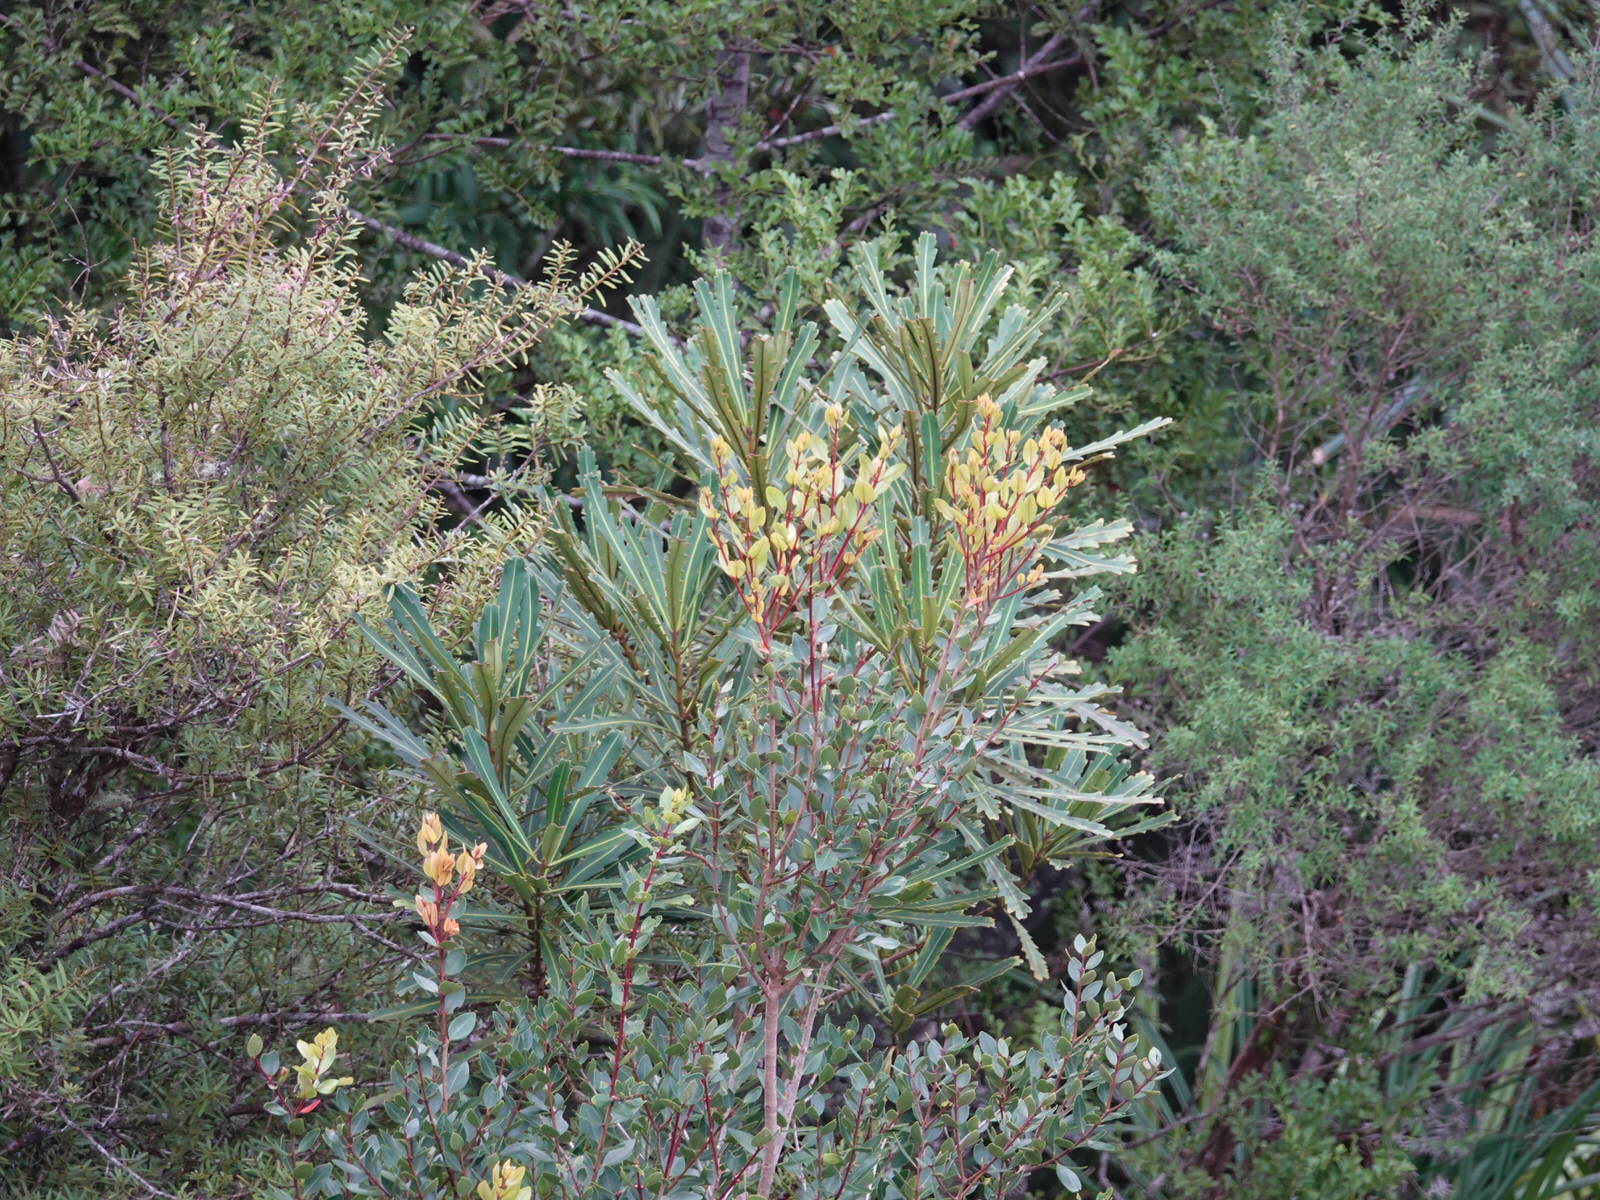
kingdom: Plantae
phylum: Tracheophyta
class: Magnoliopsida
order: Myrtales
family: Myrtaceae
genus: Metrosideros
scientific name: Metrosideros robusta
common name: Northern rata
